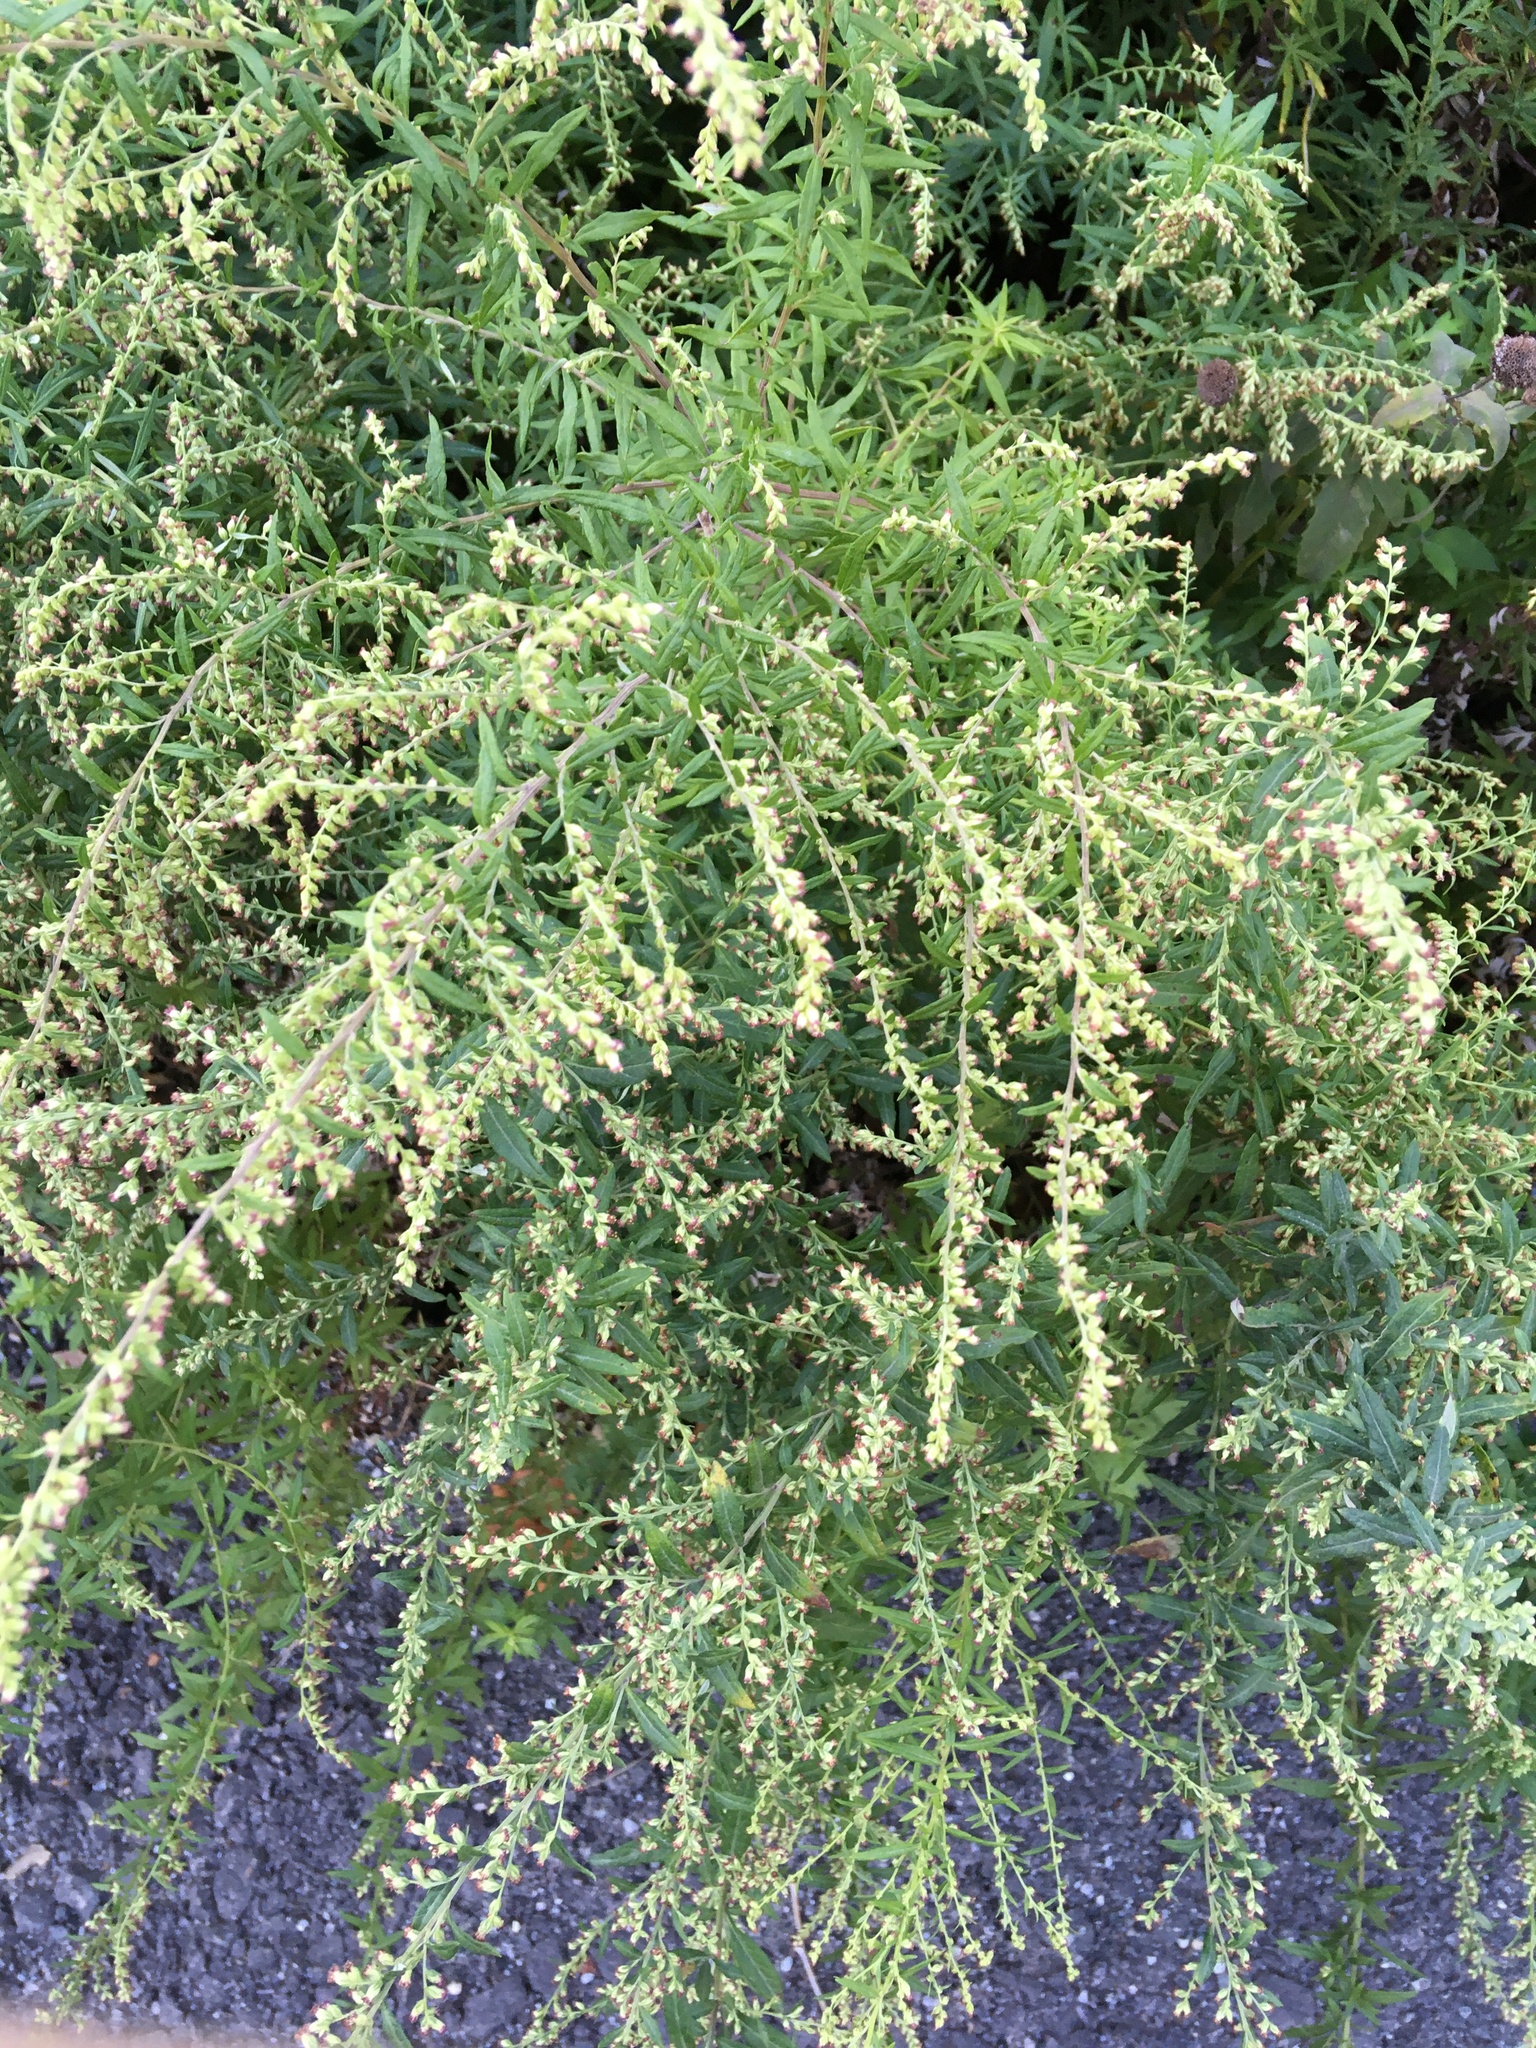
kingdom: Plantae
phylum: Tracheophyta
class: Magnoliopsida
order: Asterales
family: Asteraceae
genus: Artemisia
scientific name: Artemisia vulgaris
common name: Mugwort
